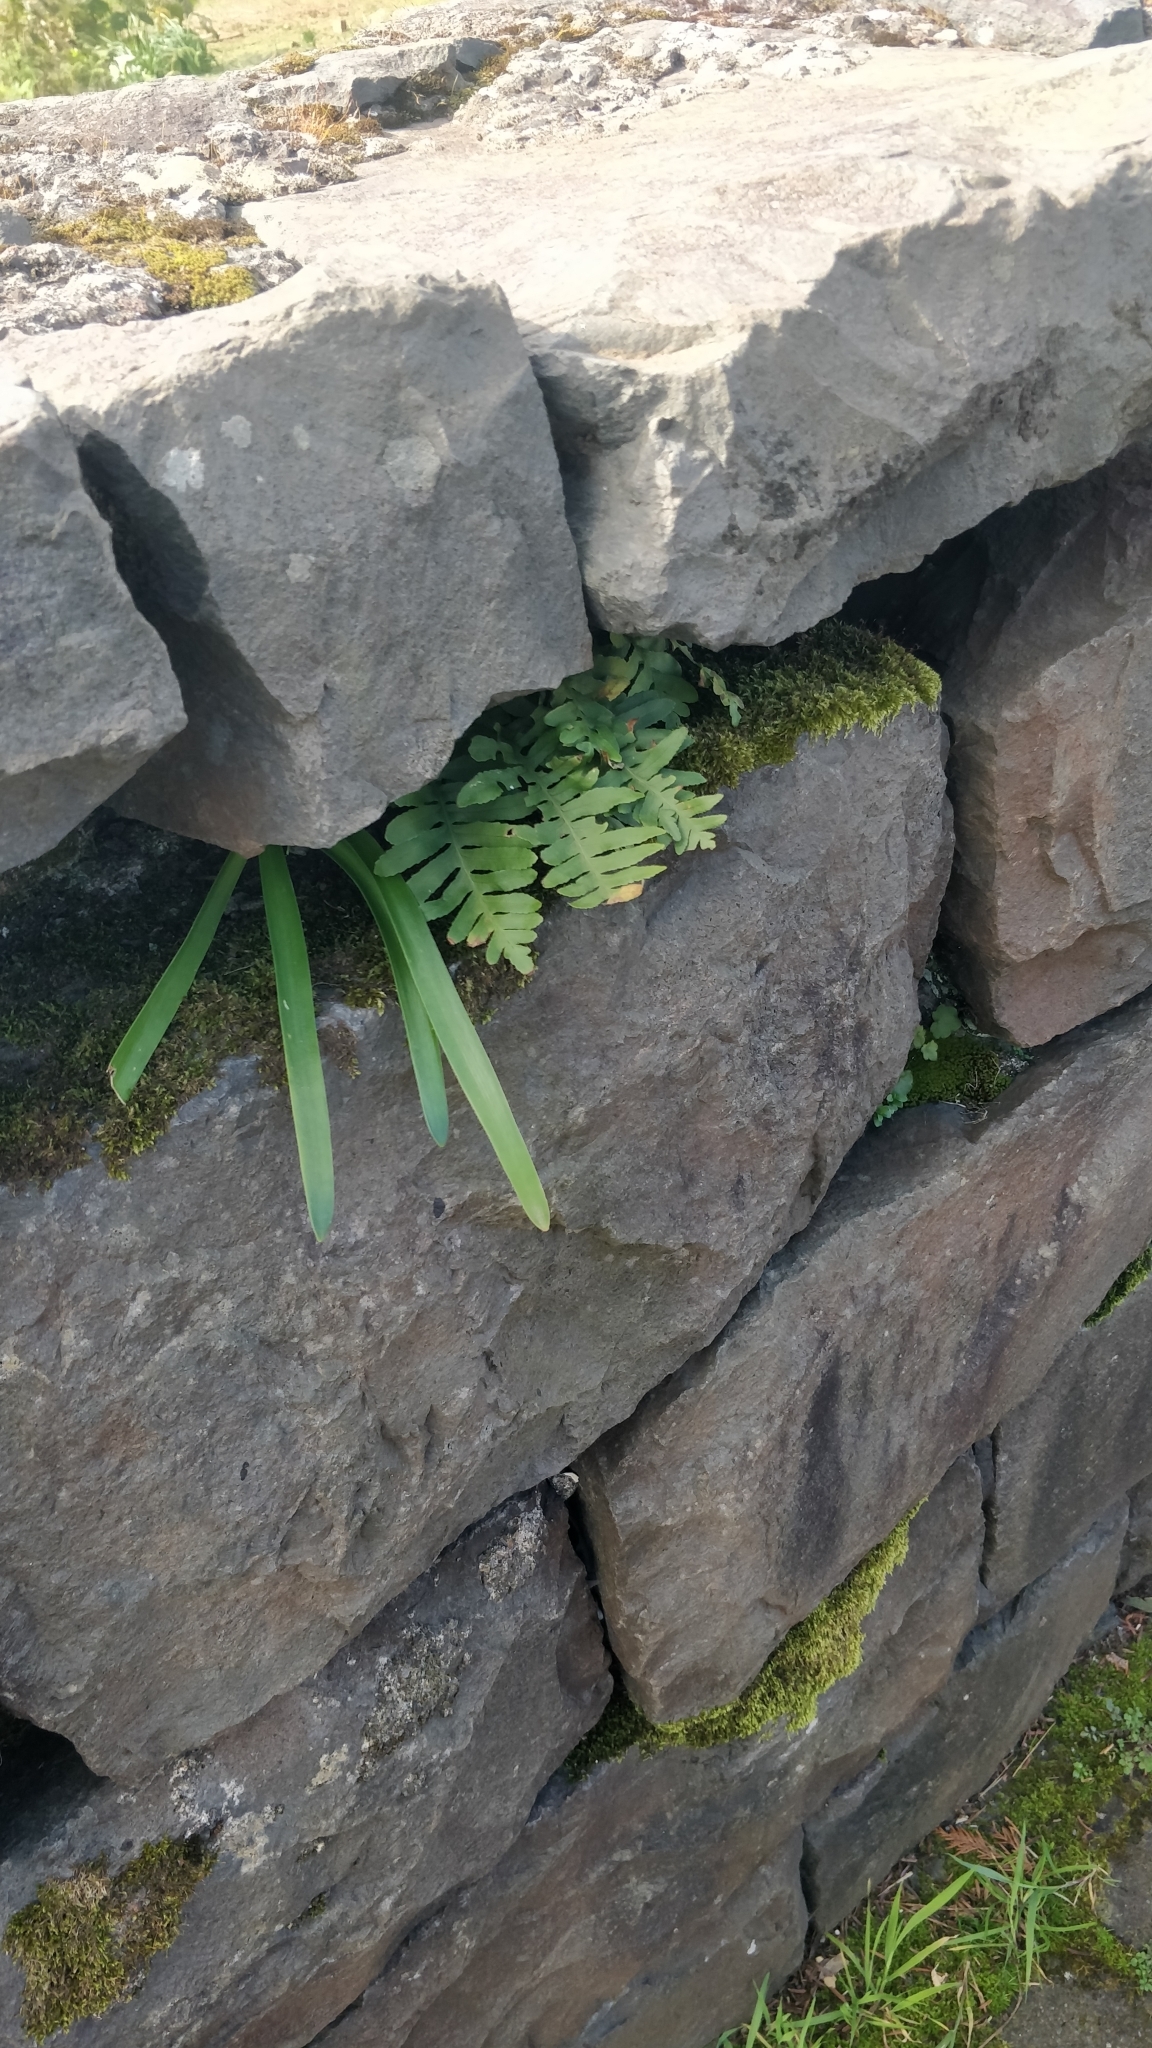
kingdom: Plantae
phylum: Tracheophyta
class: Polypodiopsida
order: Polypodiales
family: Polypodiaceae
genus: Polypodium
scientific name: Polypodium macaronesicum
